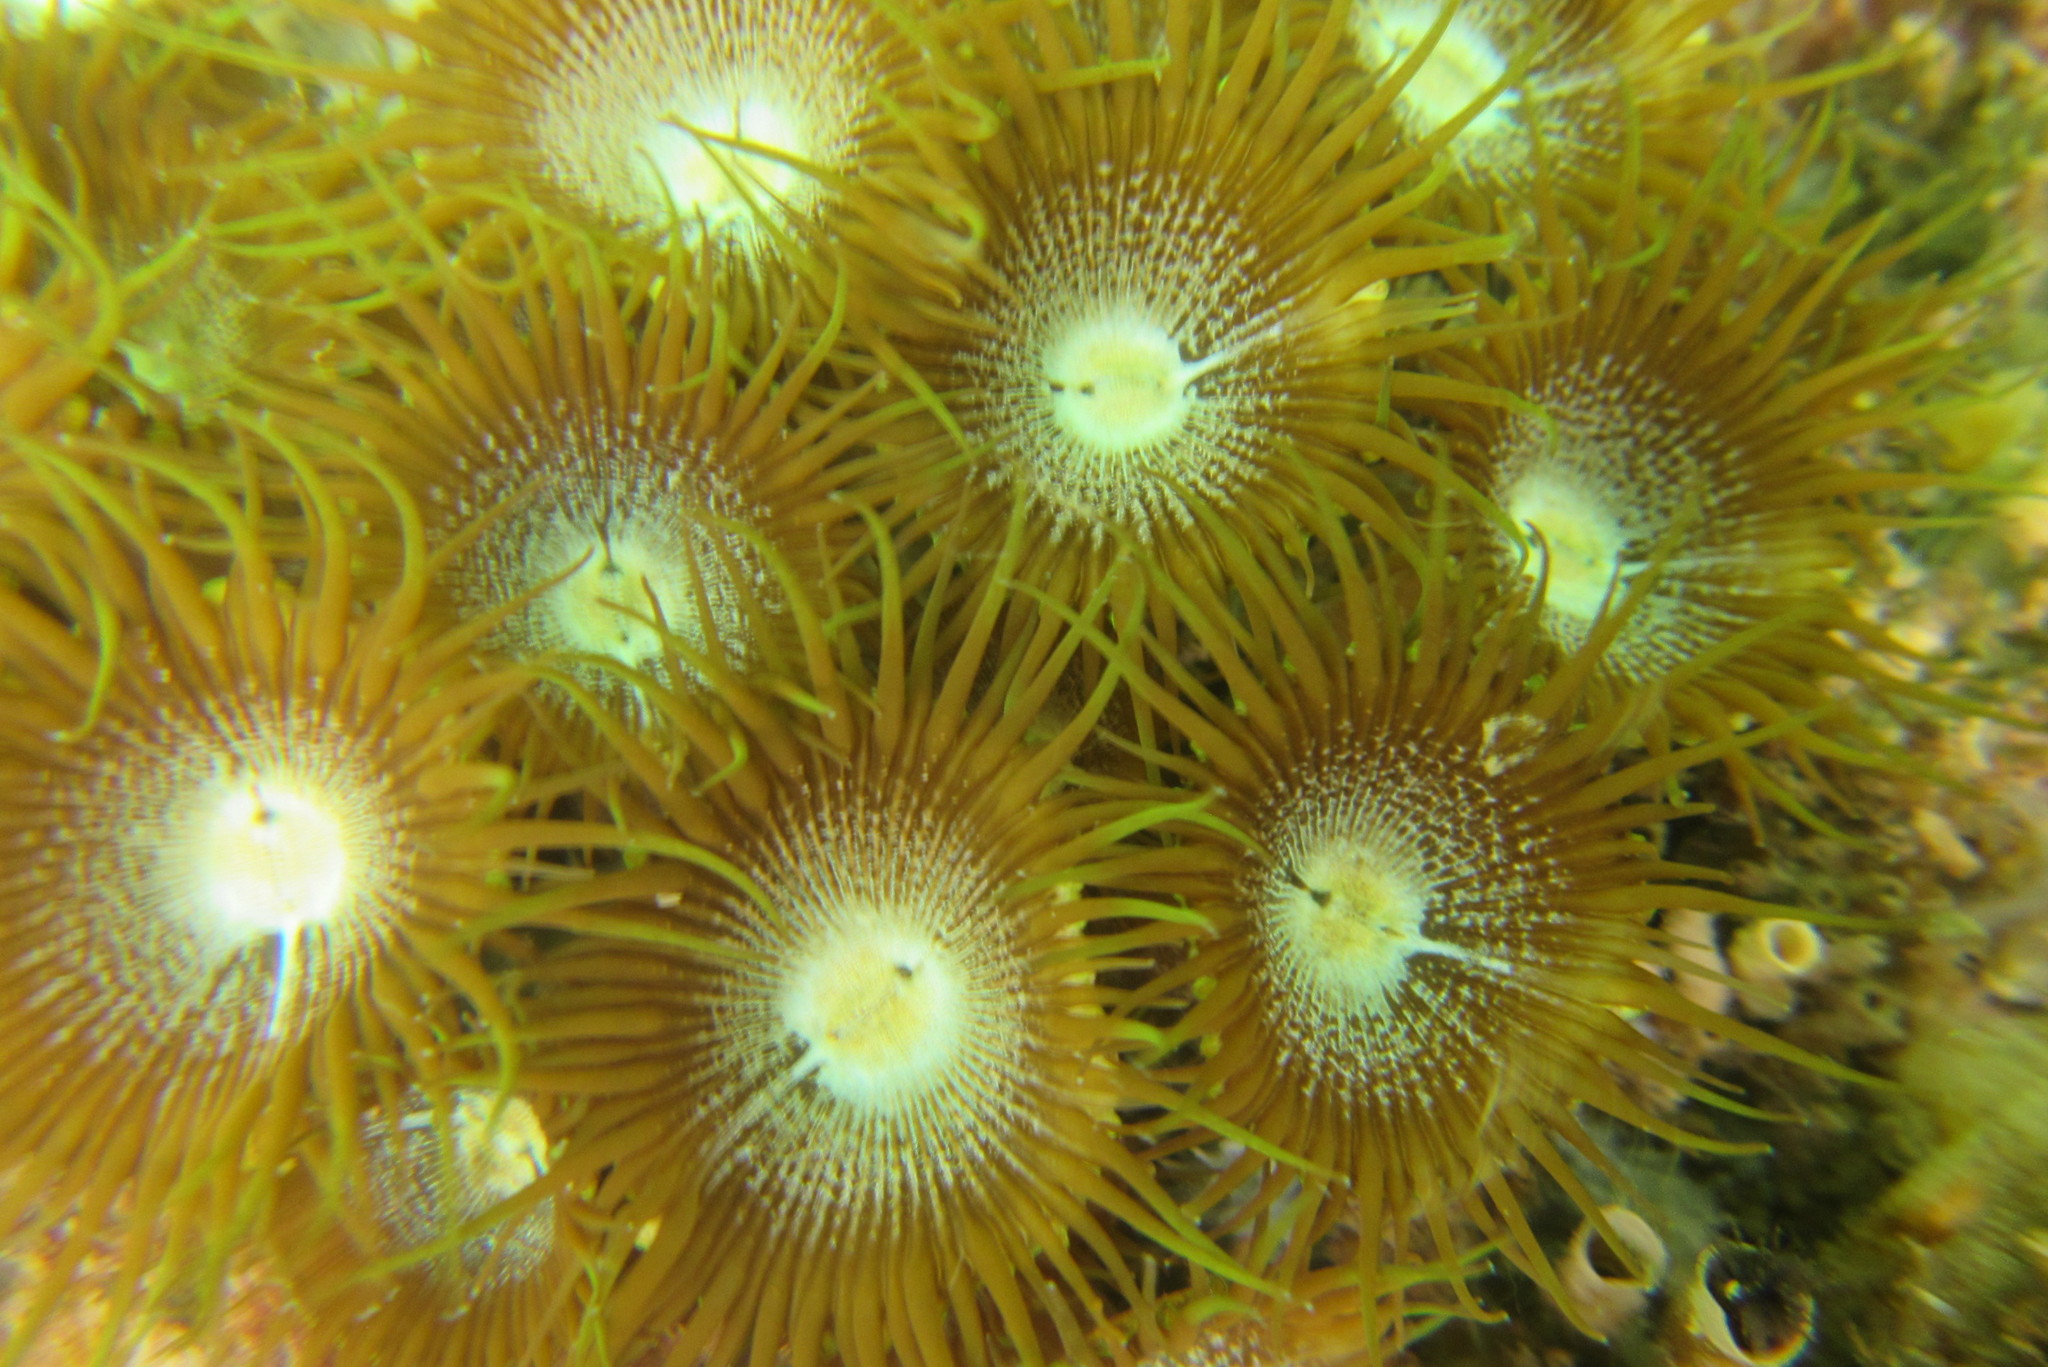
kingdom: Animalia
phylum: Cnidaria
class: Anthozoa
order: Zoantharia
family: Sphenopidae
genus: Palythoa
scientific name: Palythoa mutuki
